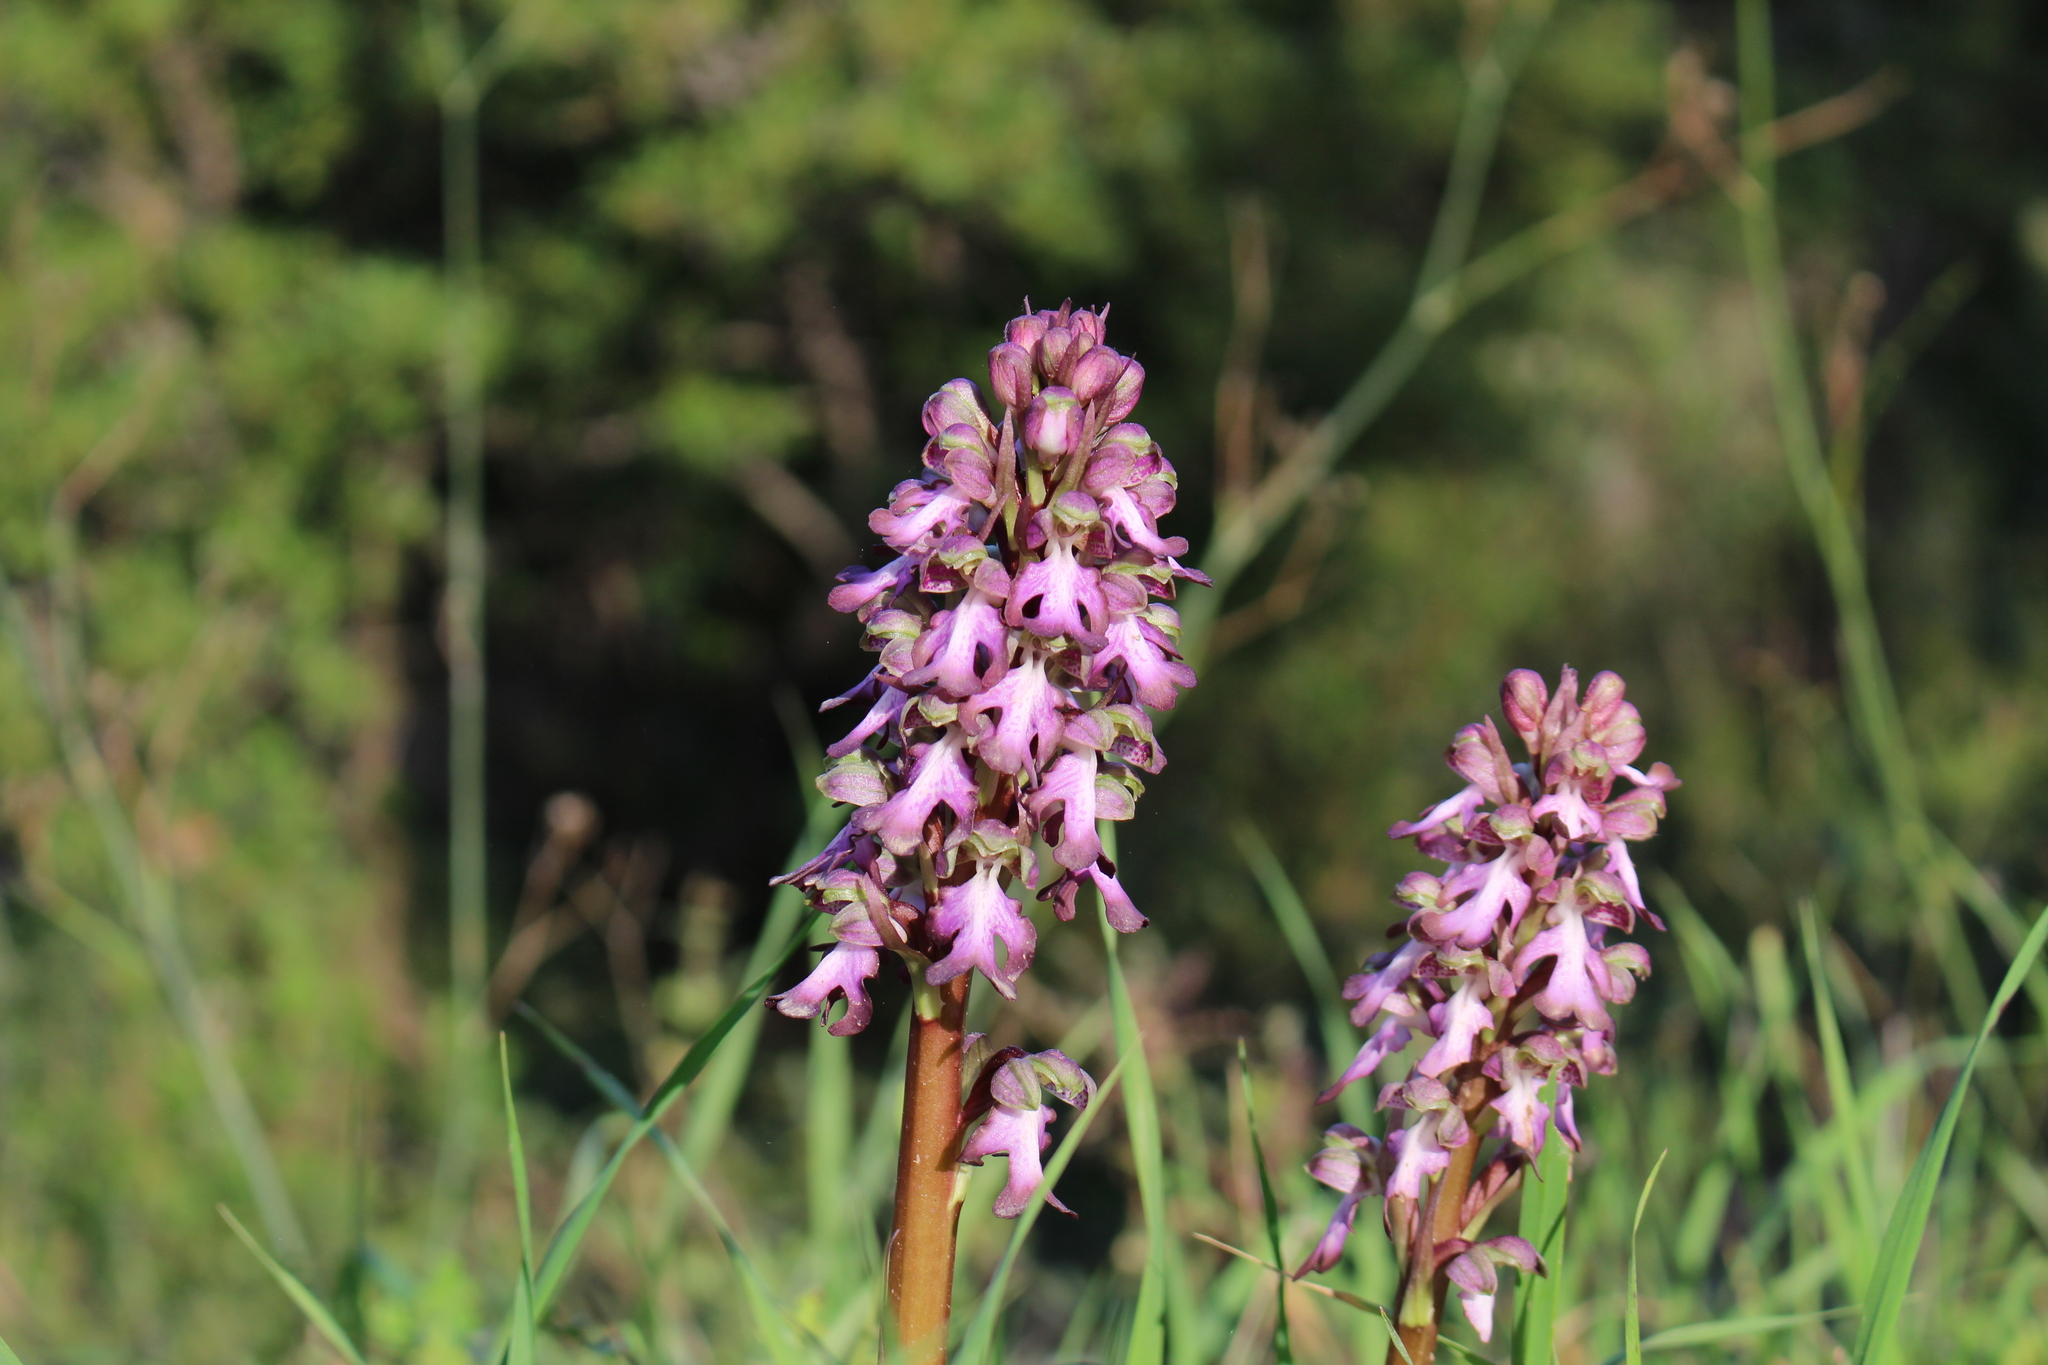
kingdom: Plantae
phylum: Tracheophyta
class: Liliopsida
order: Asparagales
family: Orchidaceae
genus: Himantoglossum
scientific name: Himantoglossum robertianum
